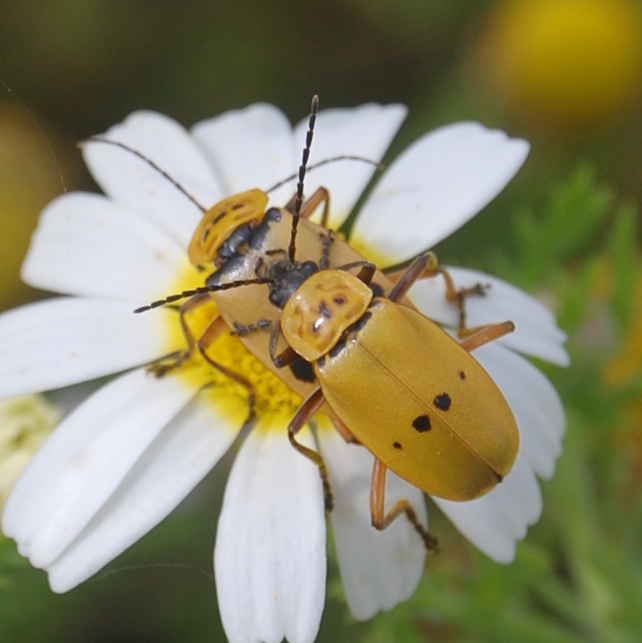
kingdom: Animalia
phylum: Arthropoda
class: Insecta
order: Coleoptera
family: Cantharidae
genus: Chauliognathus
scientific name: Chauliognathus
